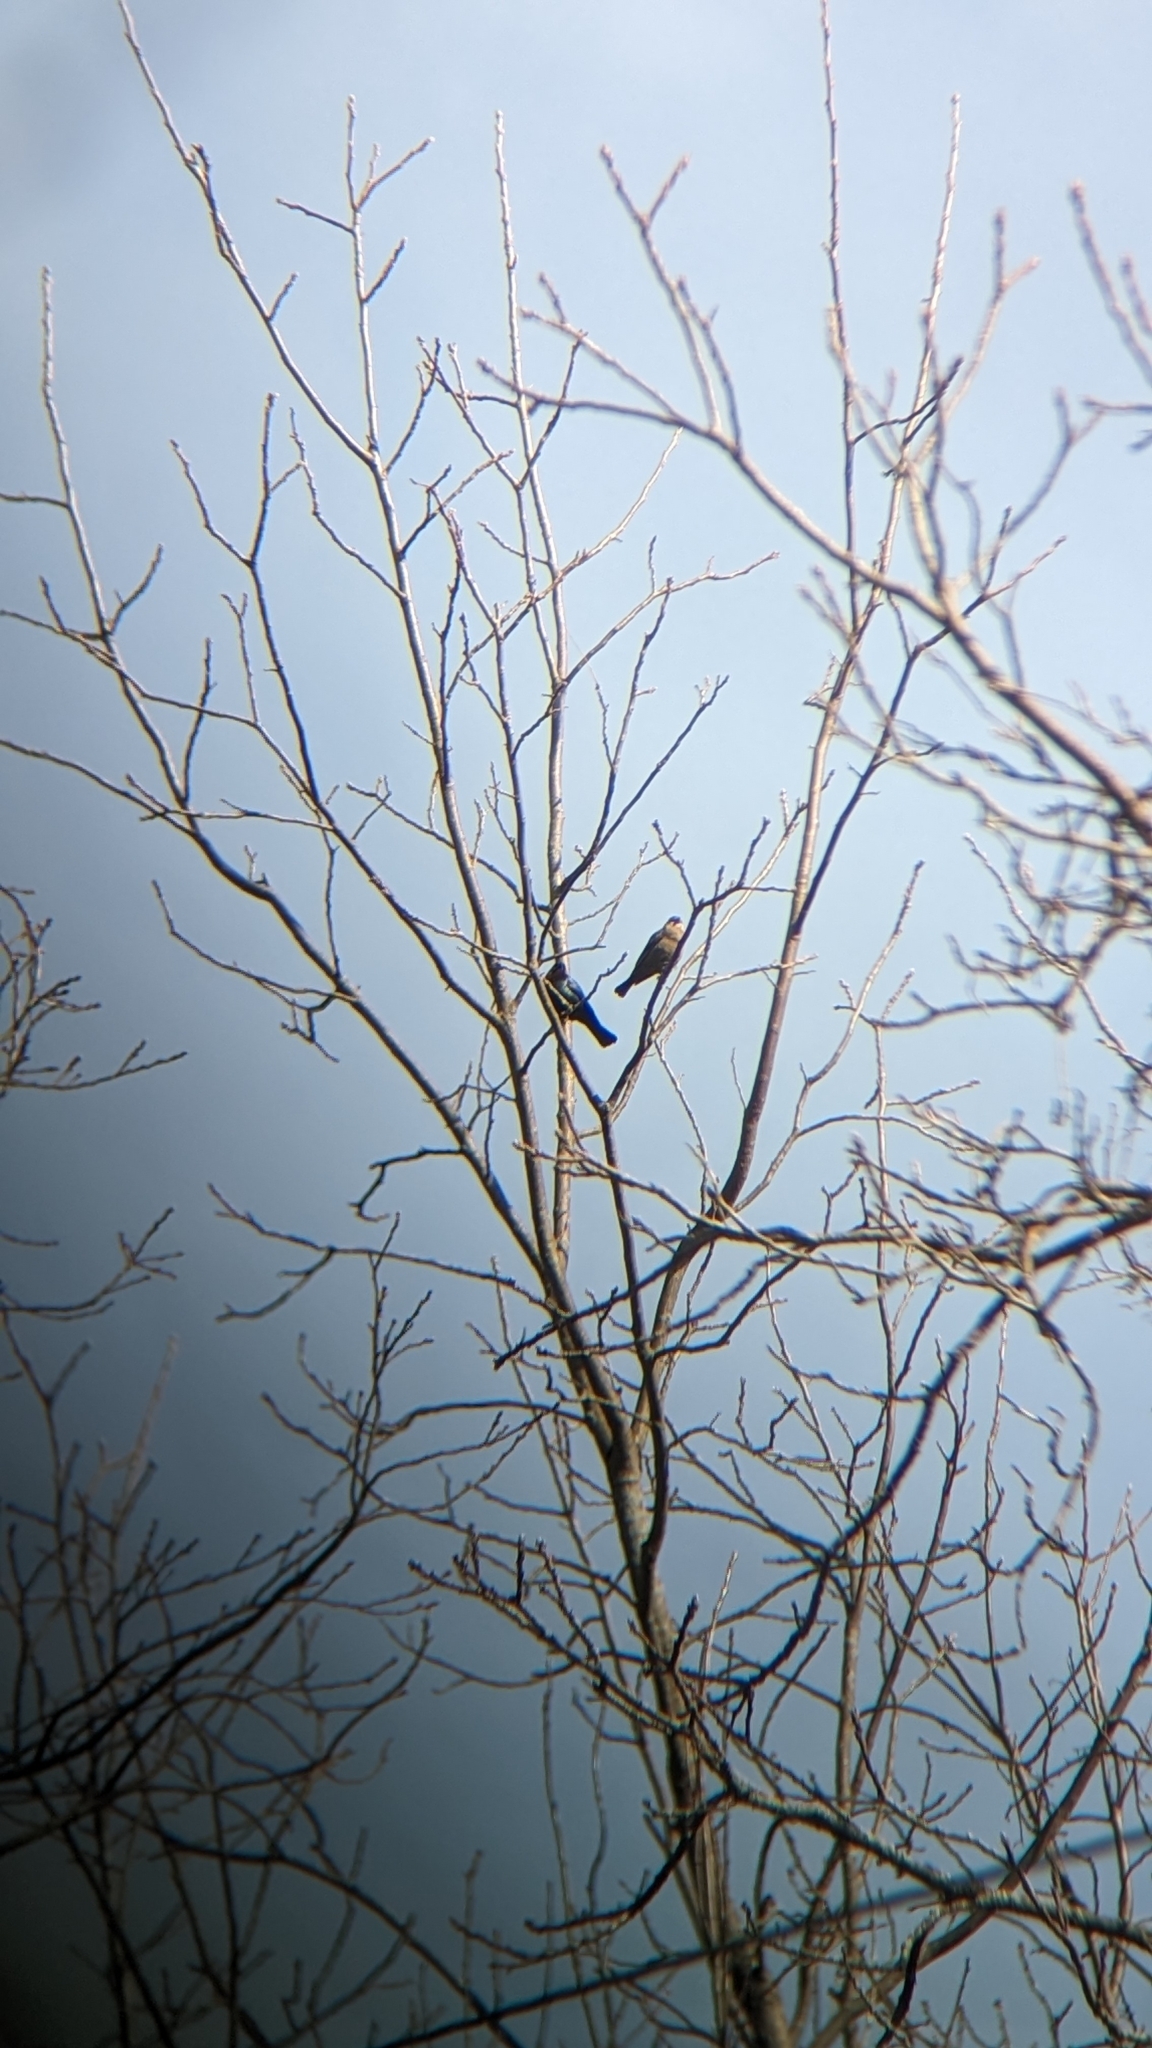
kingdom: Animalia
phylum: Chordata
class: Aves
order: Passeriformes
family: Icteridae
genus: Molothrus
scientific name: Molothrus ater
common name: Brown-headed cowbird
